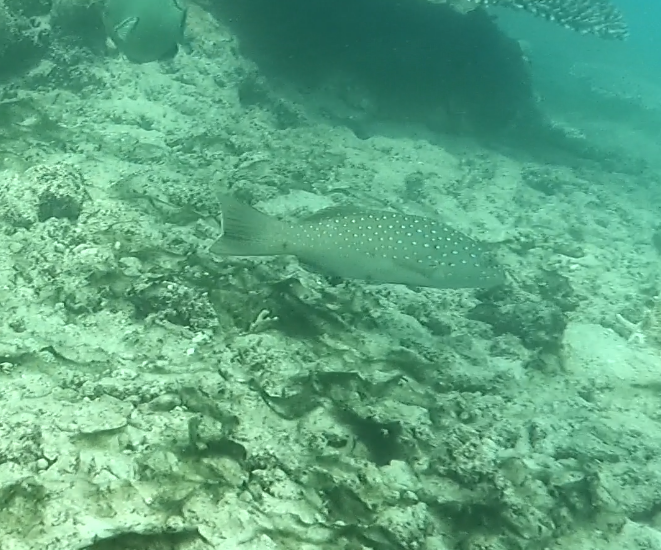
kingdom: Animalia
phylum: Chordata
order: Perciformes
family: Serranidae
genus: Plectropomus
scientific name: Plectropomus maculatus
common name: Spotted coralgrouper
